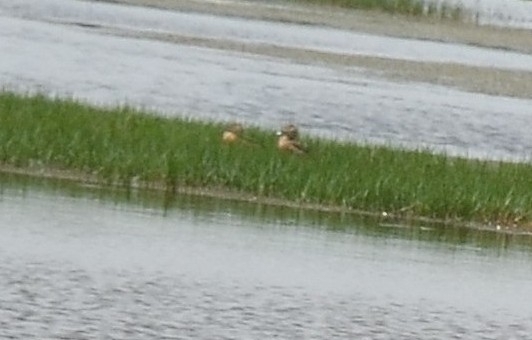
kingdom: Animalia
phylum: Chordata
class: Aves
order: Anseriformes
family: Anatidae
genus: Dendrocygna
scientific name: Dendrocygna javanica
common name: Lesser whistling-duck
